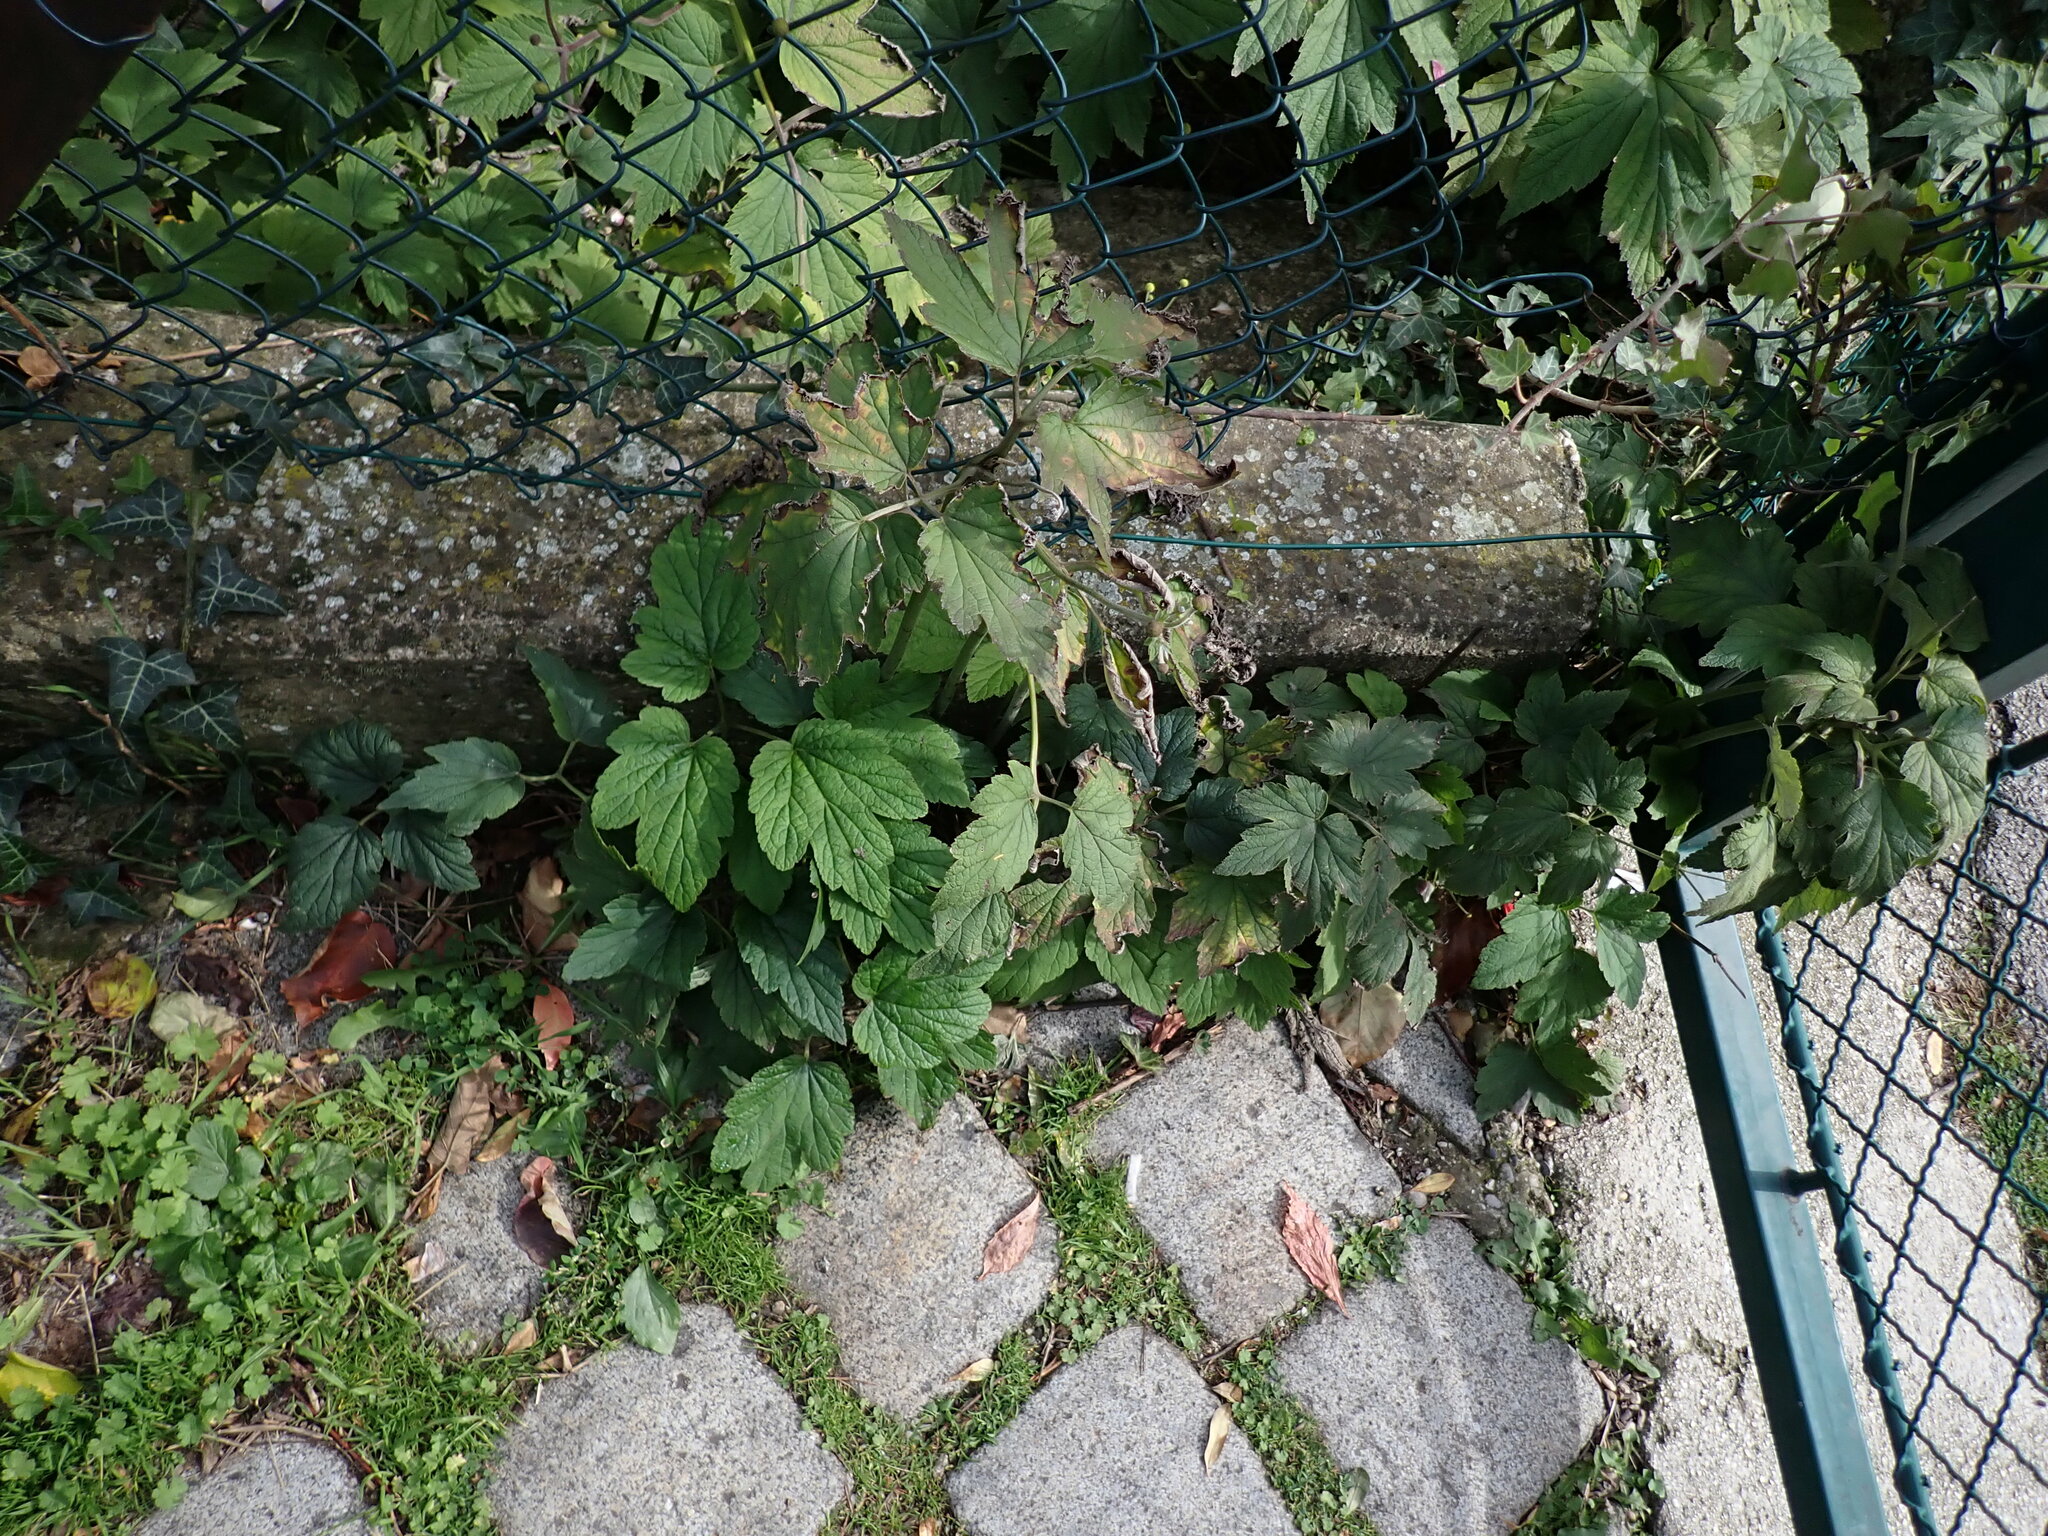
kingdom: Plantae
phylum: Tracheophyta
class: Magnoliopsida
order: Ranunculales
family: Ranunculaceae
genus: Eriocapitella
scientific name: Eriocapitella hupehensis
